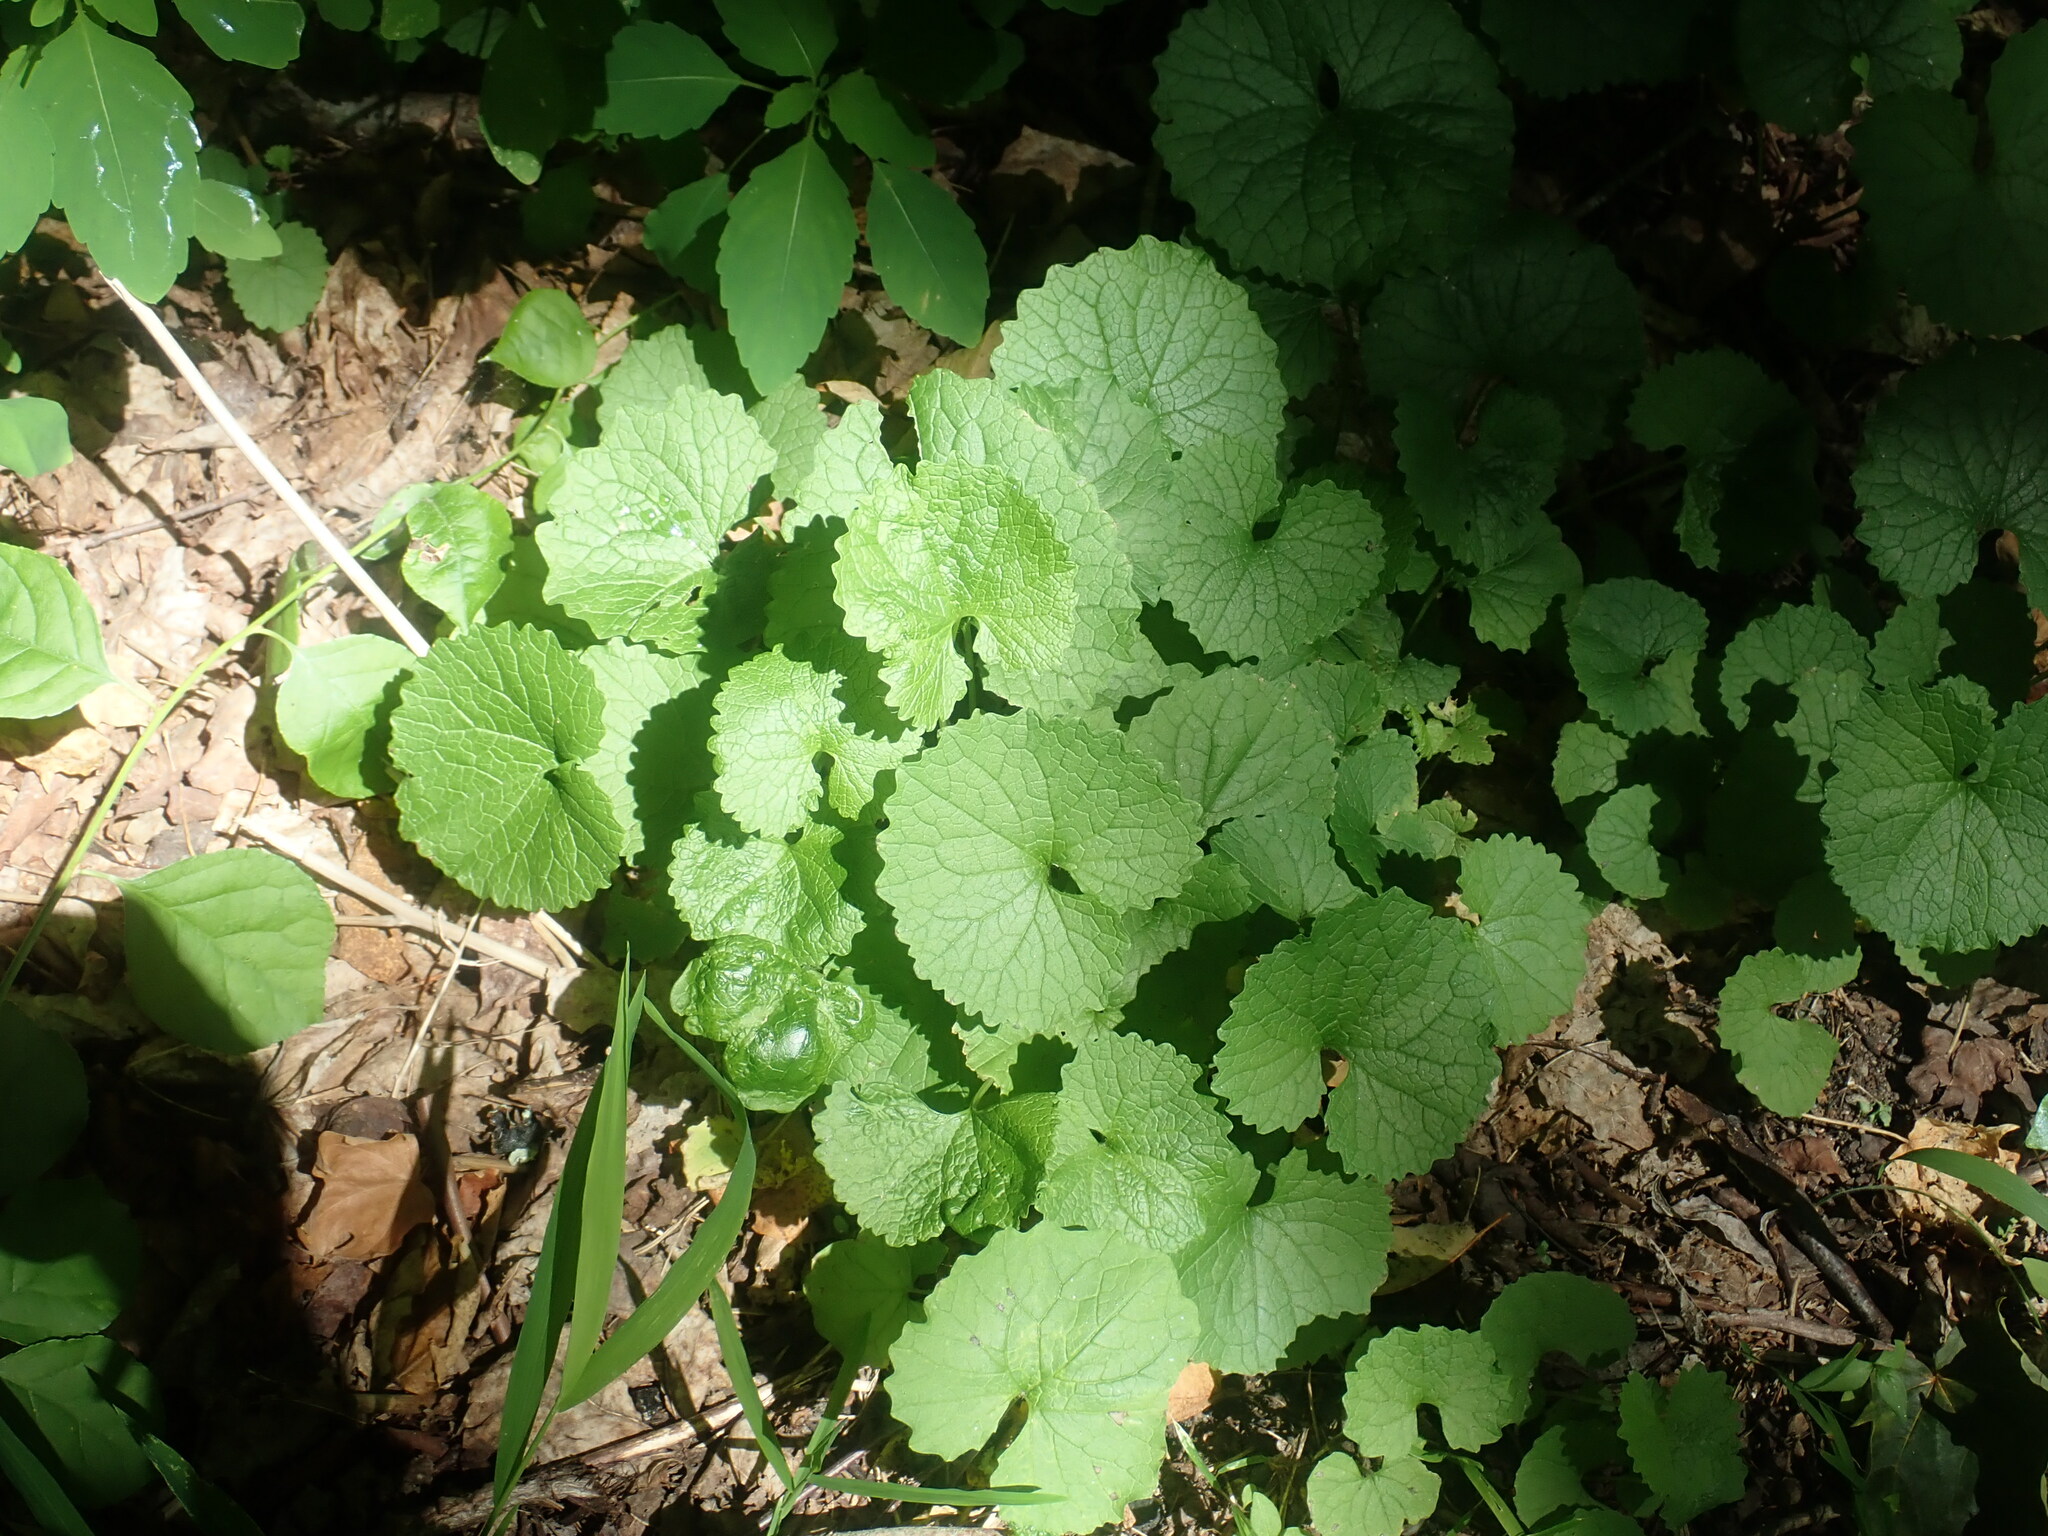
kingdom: Plantae
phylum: Tracheophyta
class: Magnoliopsida
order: Brassicales
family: Brassicaceae
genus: Alliaria
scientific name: Alliaria petiolata
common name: Garlic mustard
